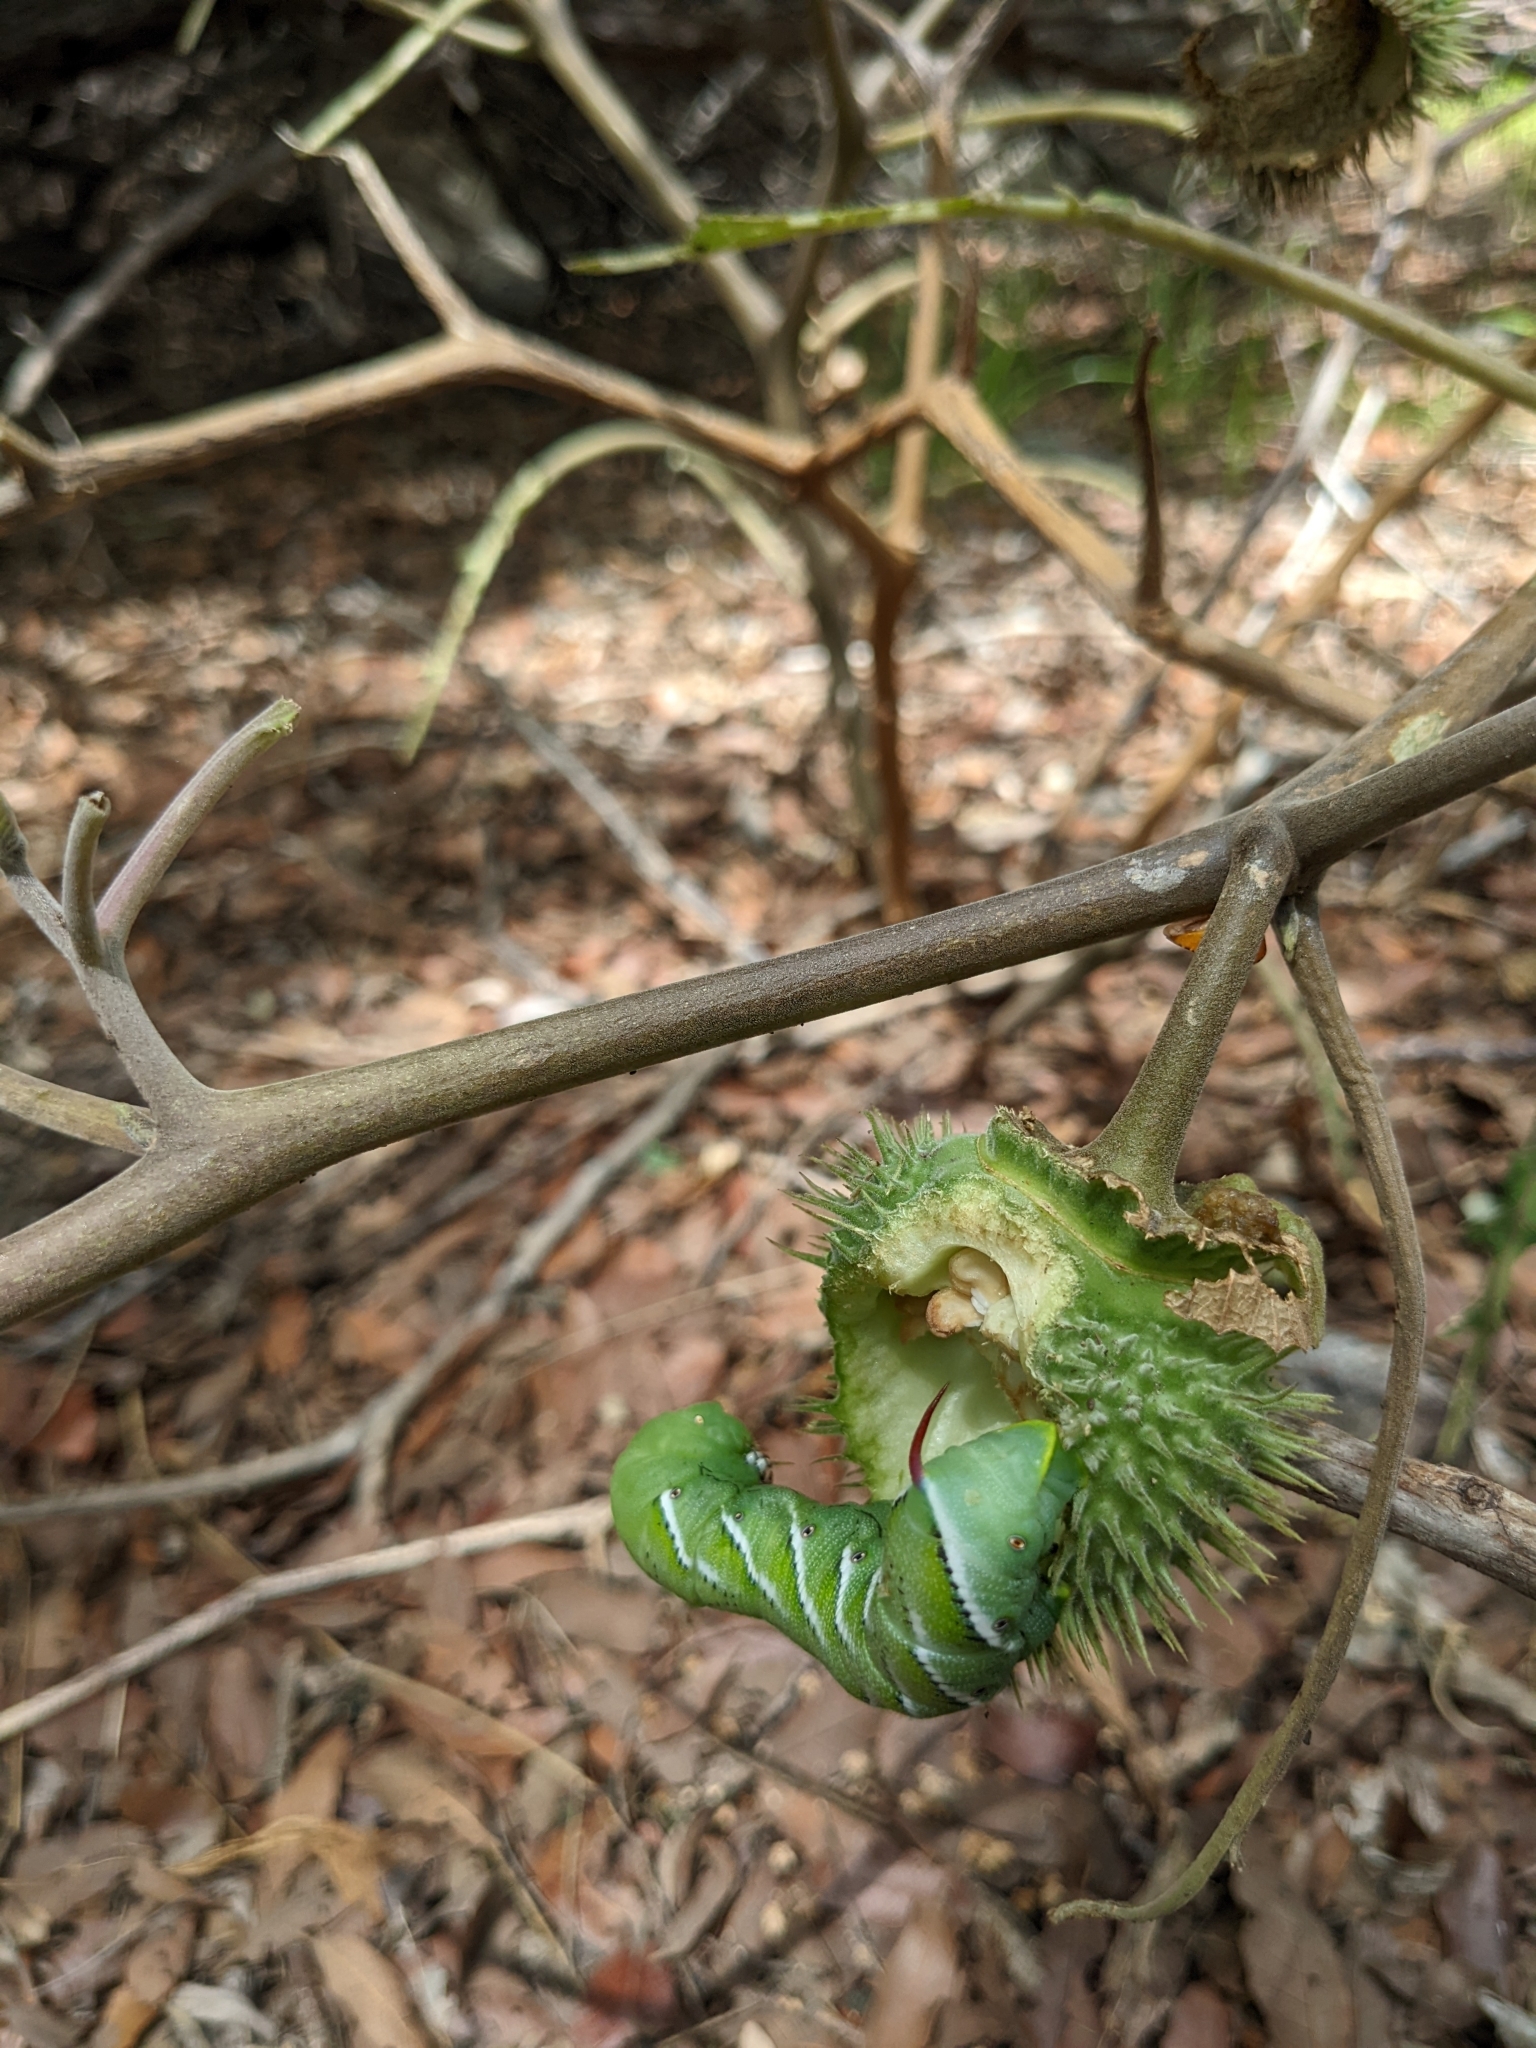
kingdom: Animalia
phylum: Arthropoda
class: Insecta
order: Lepidoptera
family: Sphingidae
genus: Manduca
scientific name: Manduca sexta
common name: Carolina sphinx
